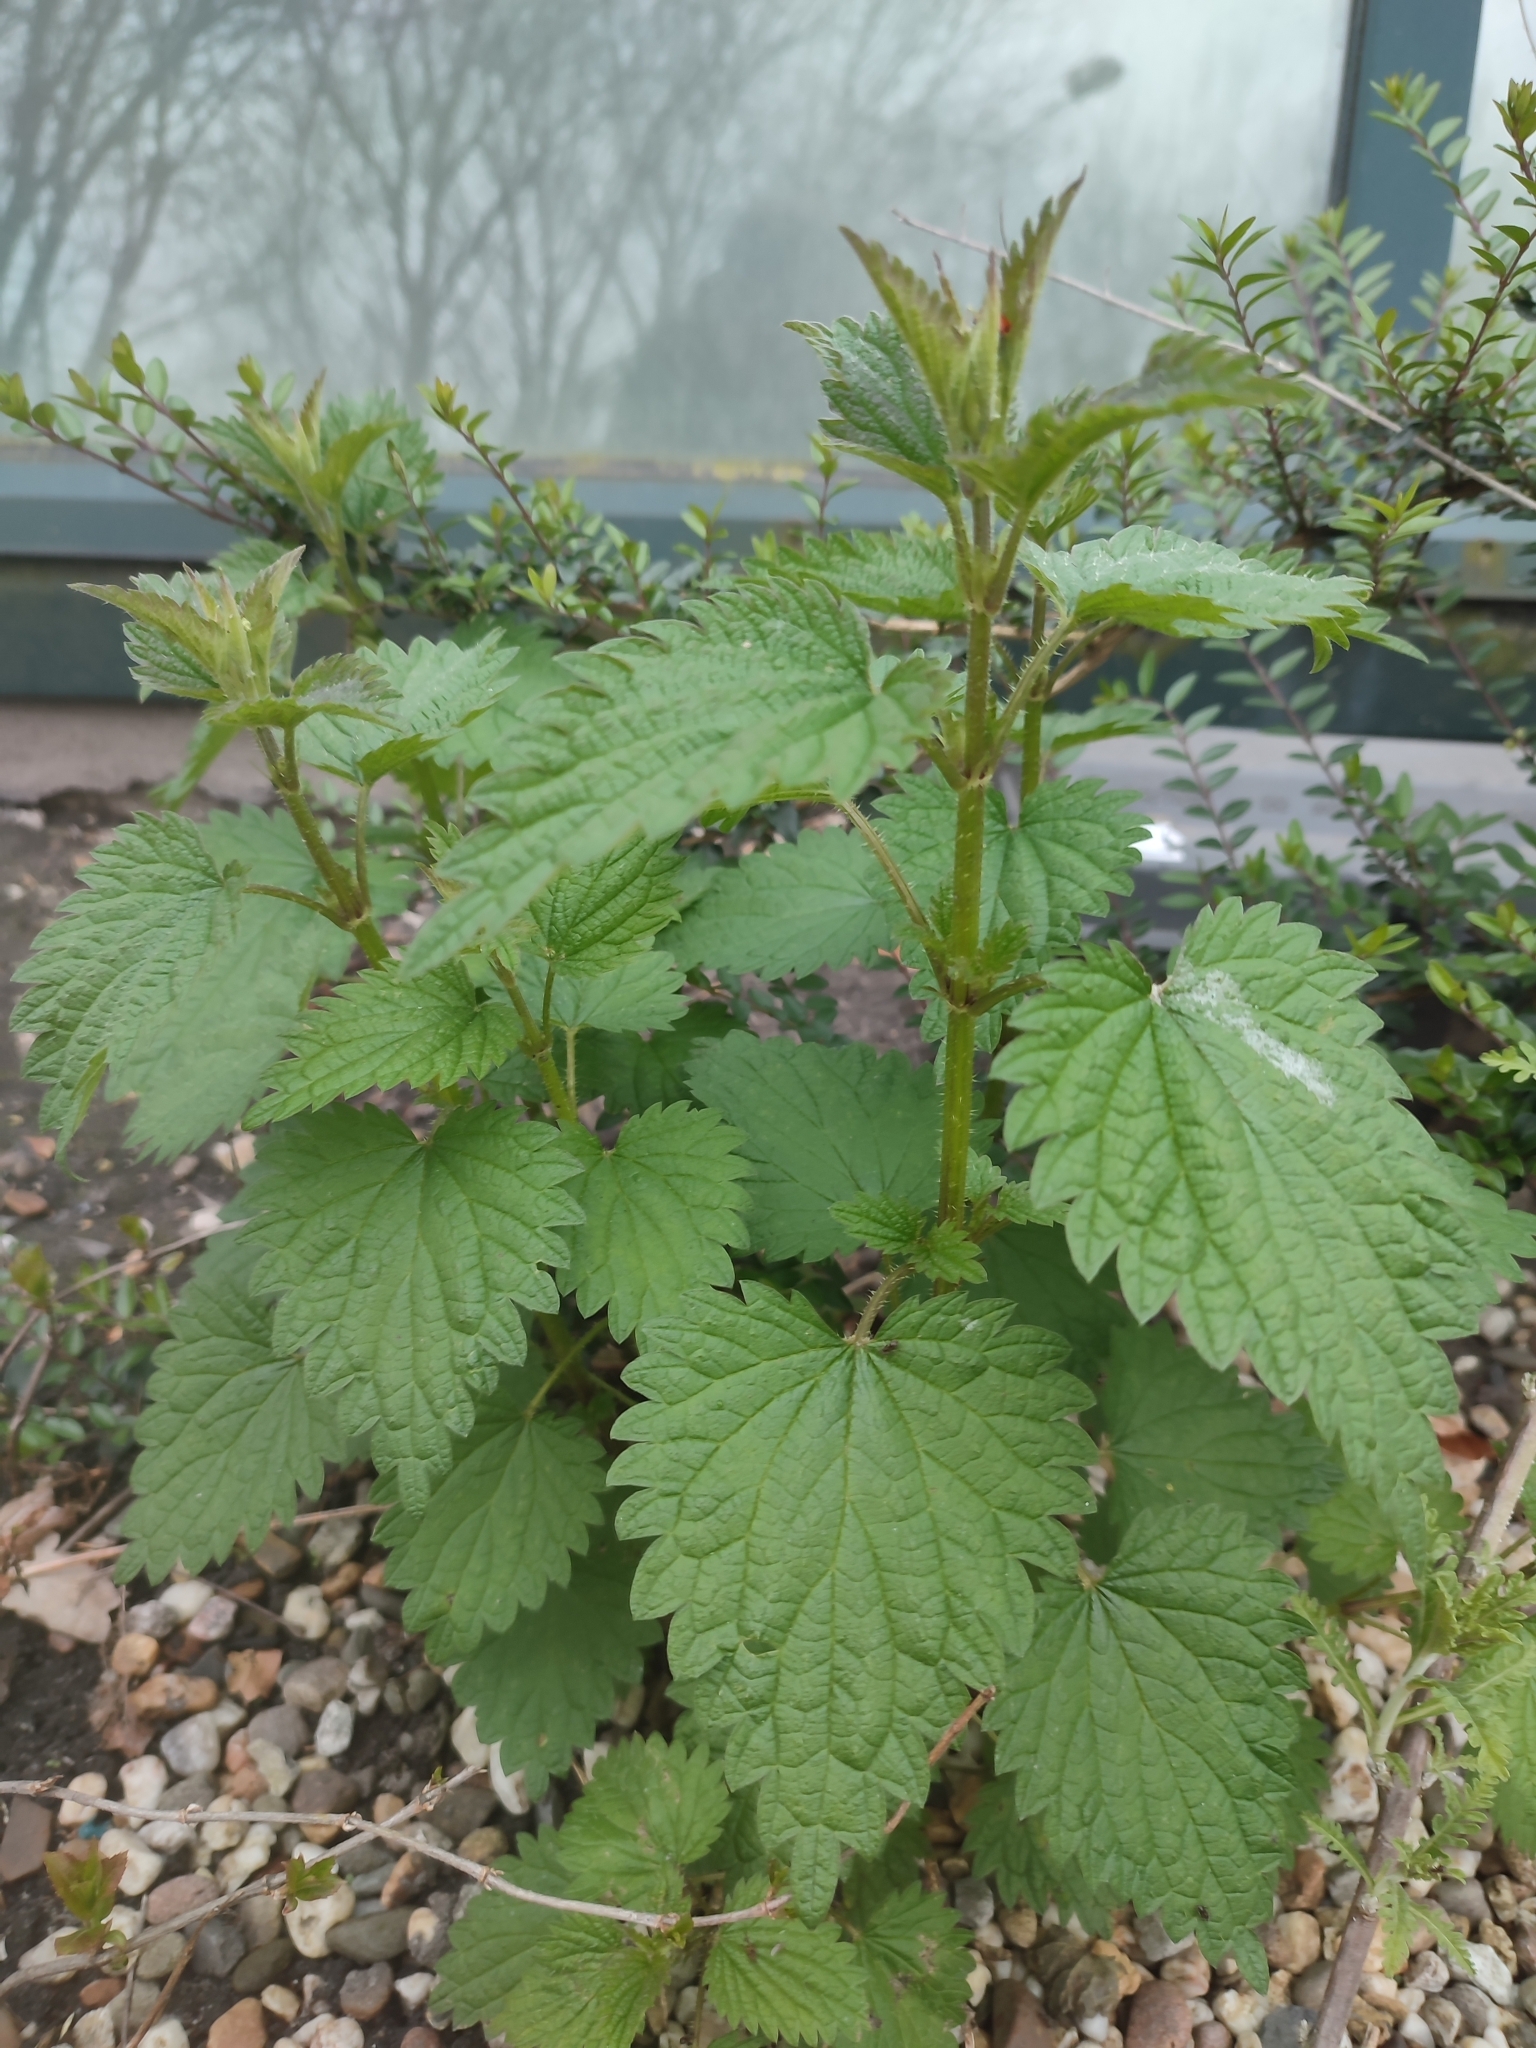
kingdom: Plantae
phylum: Tracheophyta
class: Magnoliopsida
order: Rosales
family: Urticaceae
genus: Urtica
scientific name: Urtica dioica
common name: Common nettle
